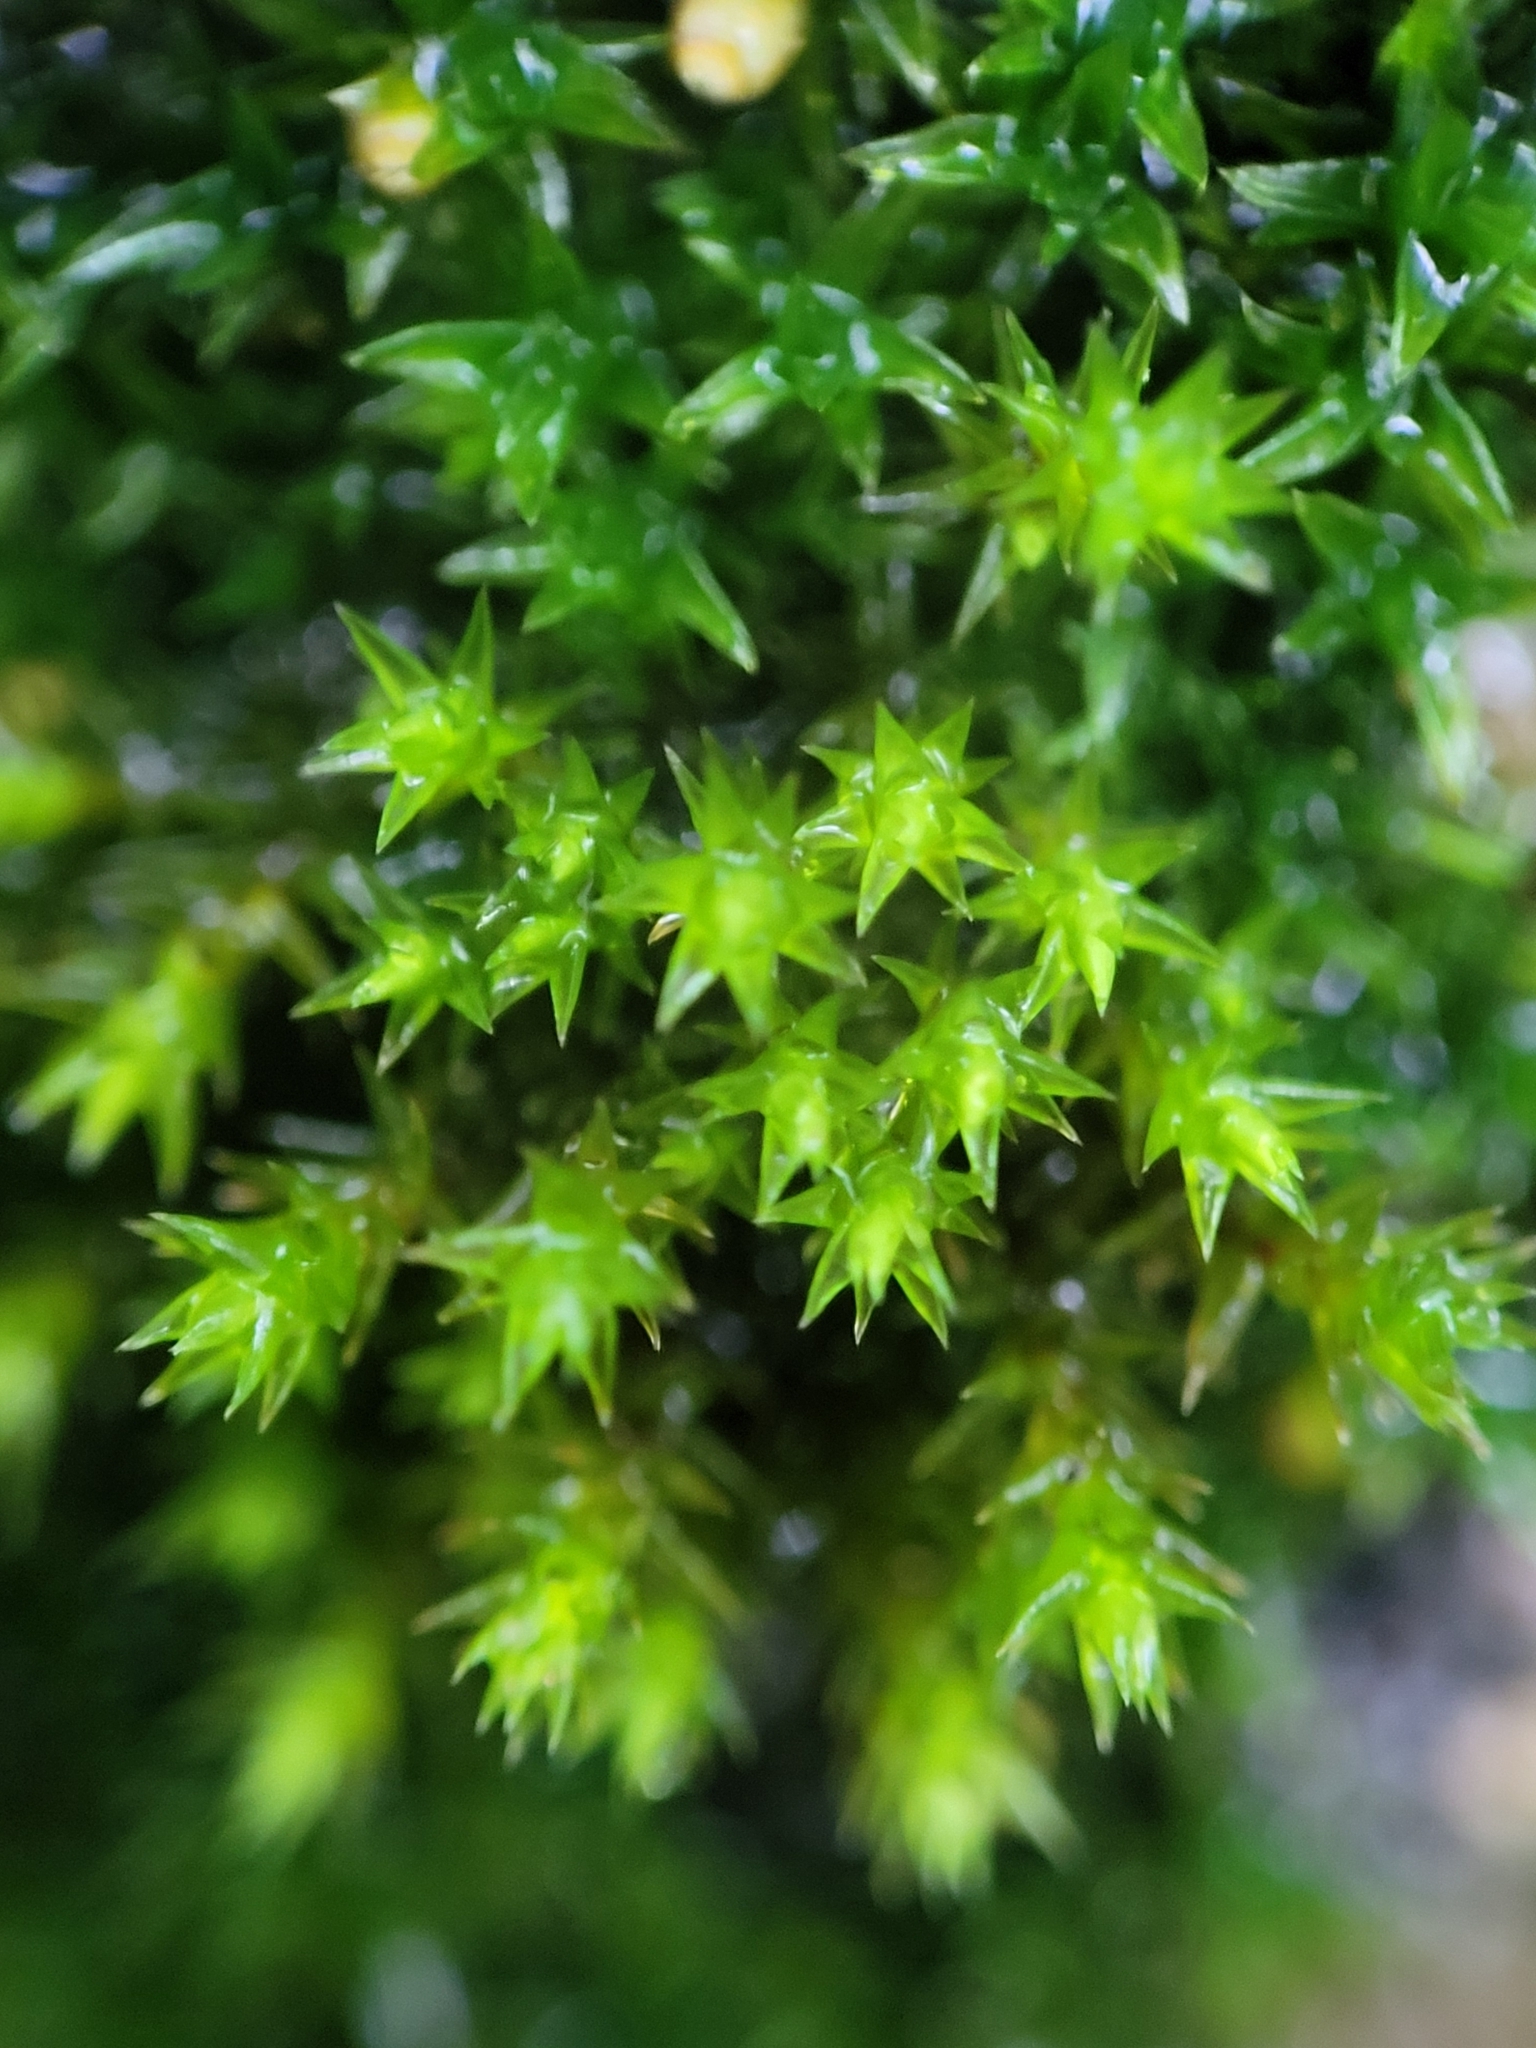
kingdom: Plantae
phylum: Bryophyta
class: Bryopsida
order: Hedwigiales
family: Hedwigiaceae
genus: Hedwigia
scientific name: Hedwigia ciliata
